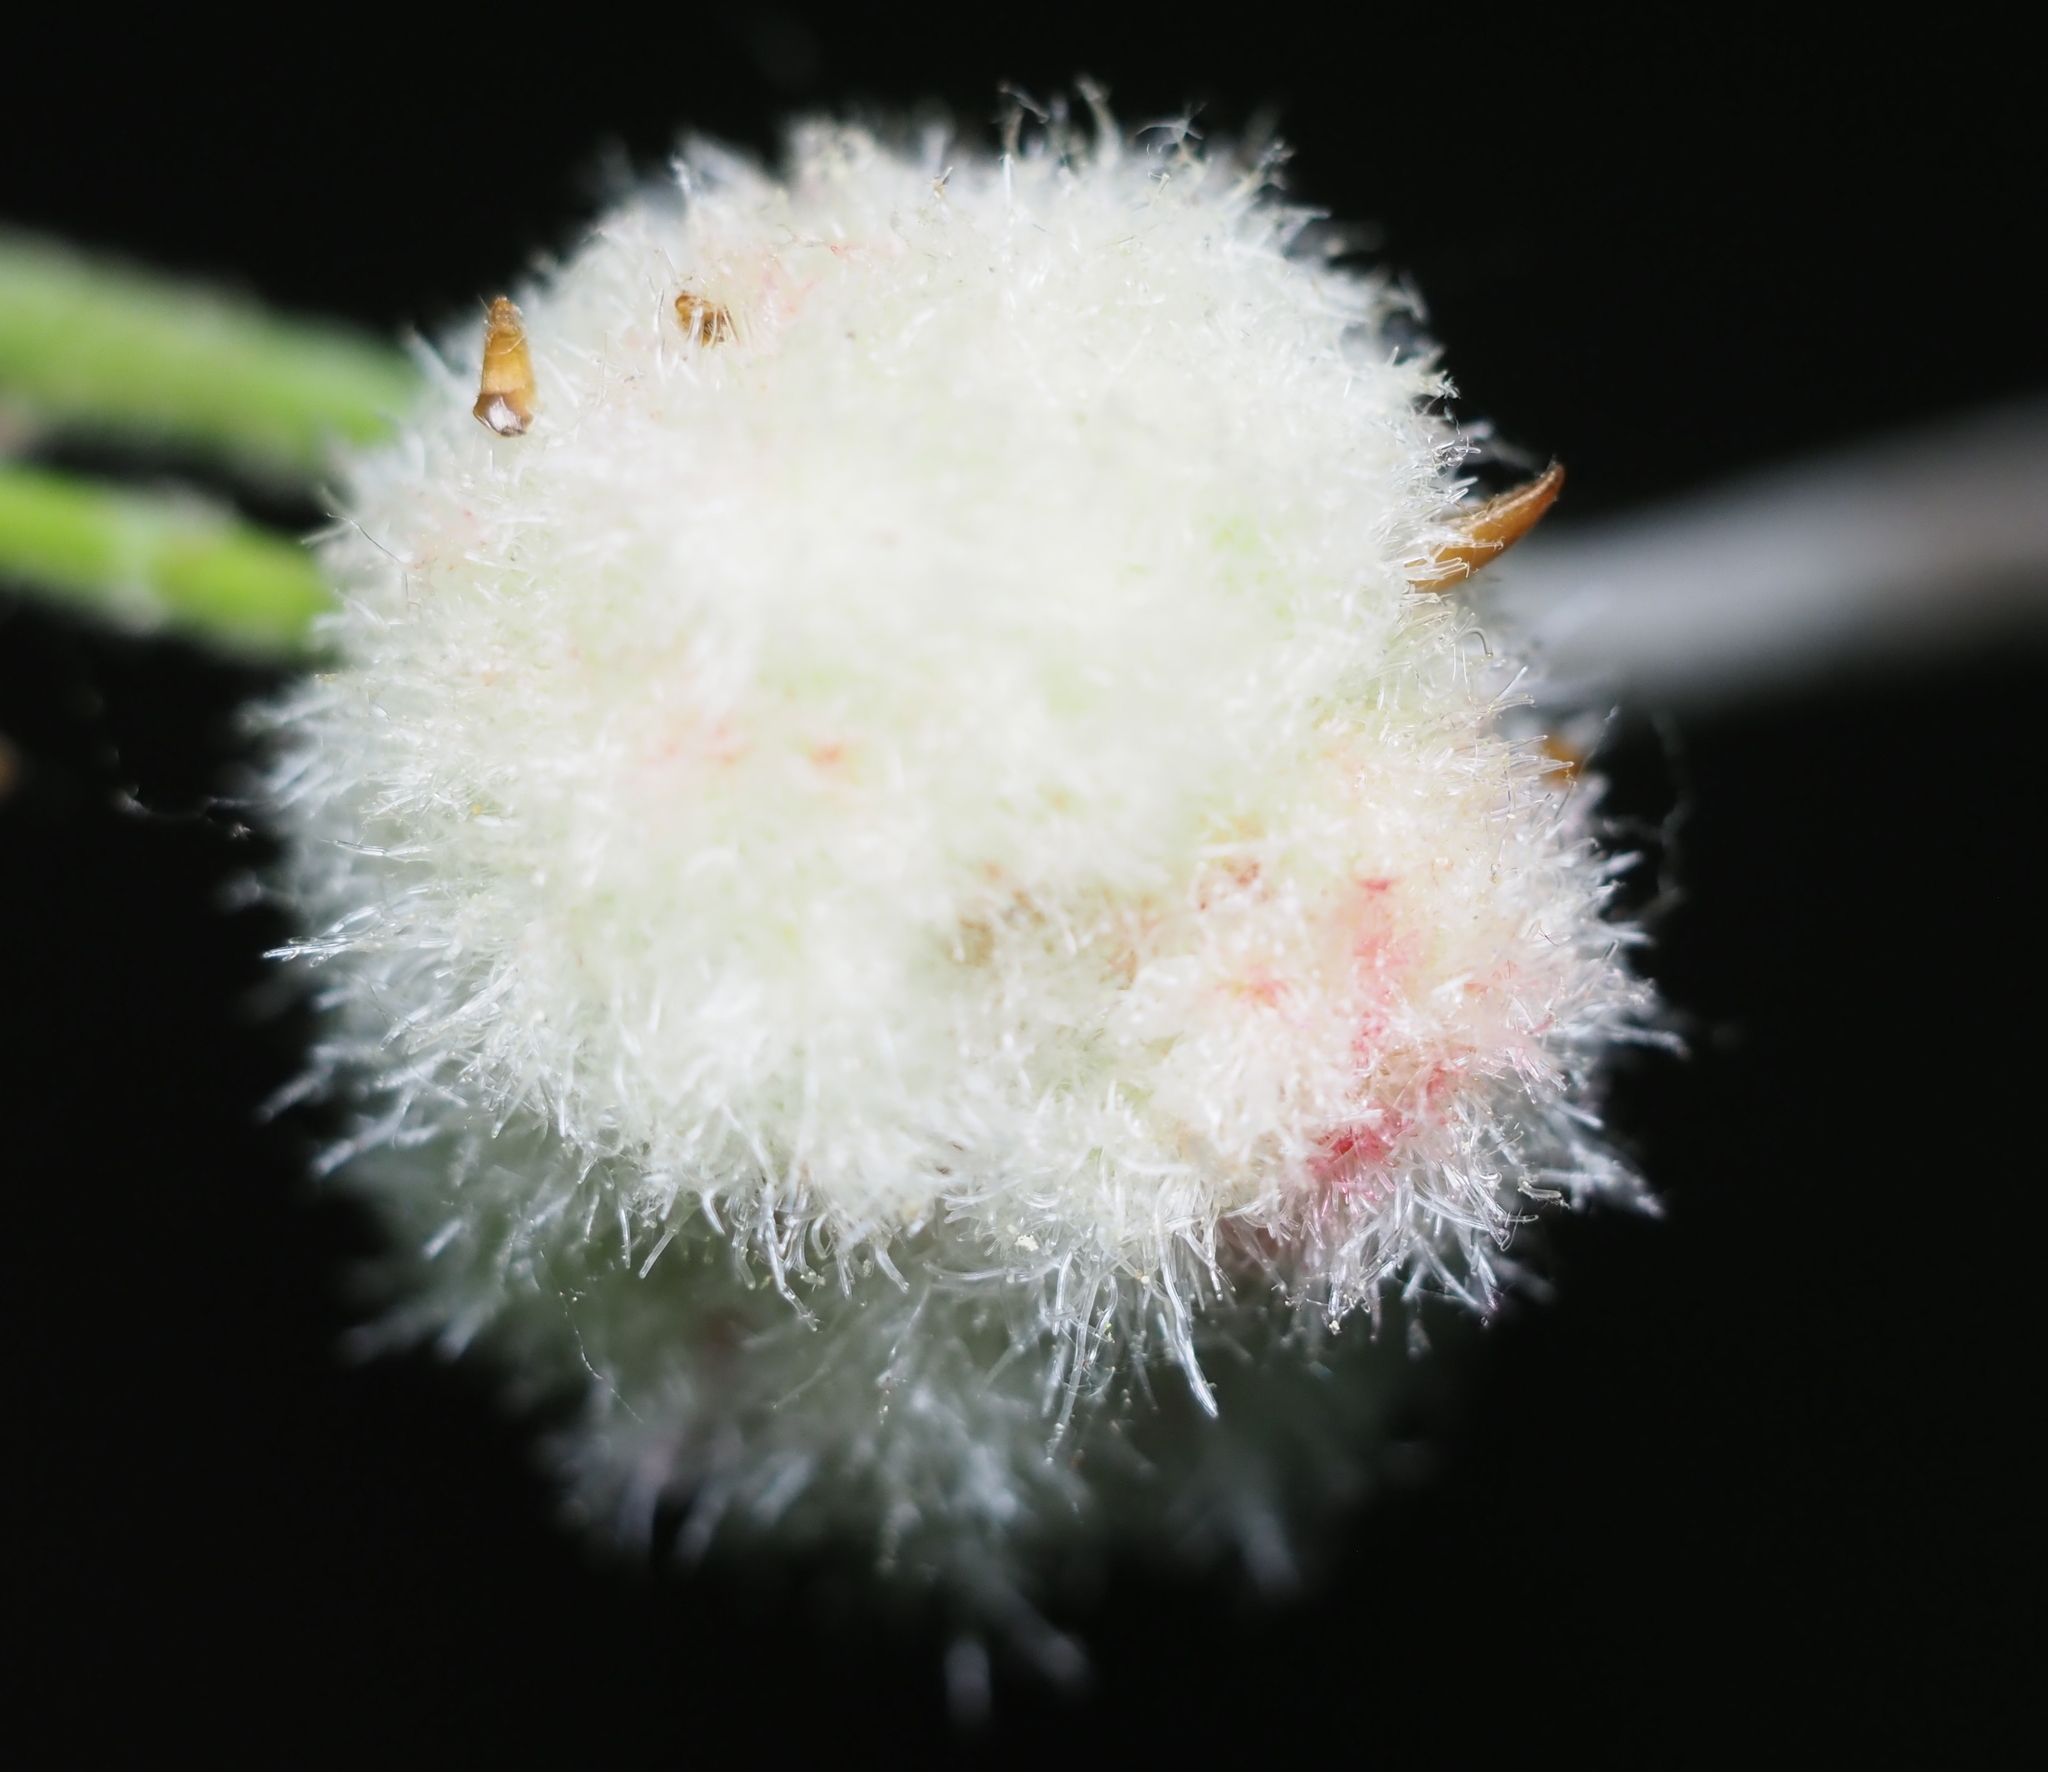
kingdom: Animalia
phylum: Arthropoda
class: Insecta
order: Hymenoptera
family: Cynipidae
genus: Callirhytis
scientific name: Callirhytis
